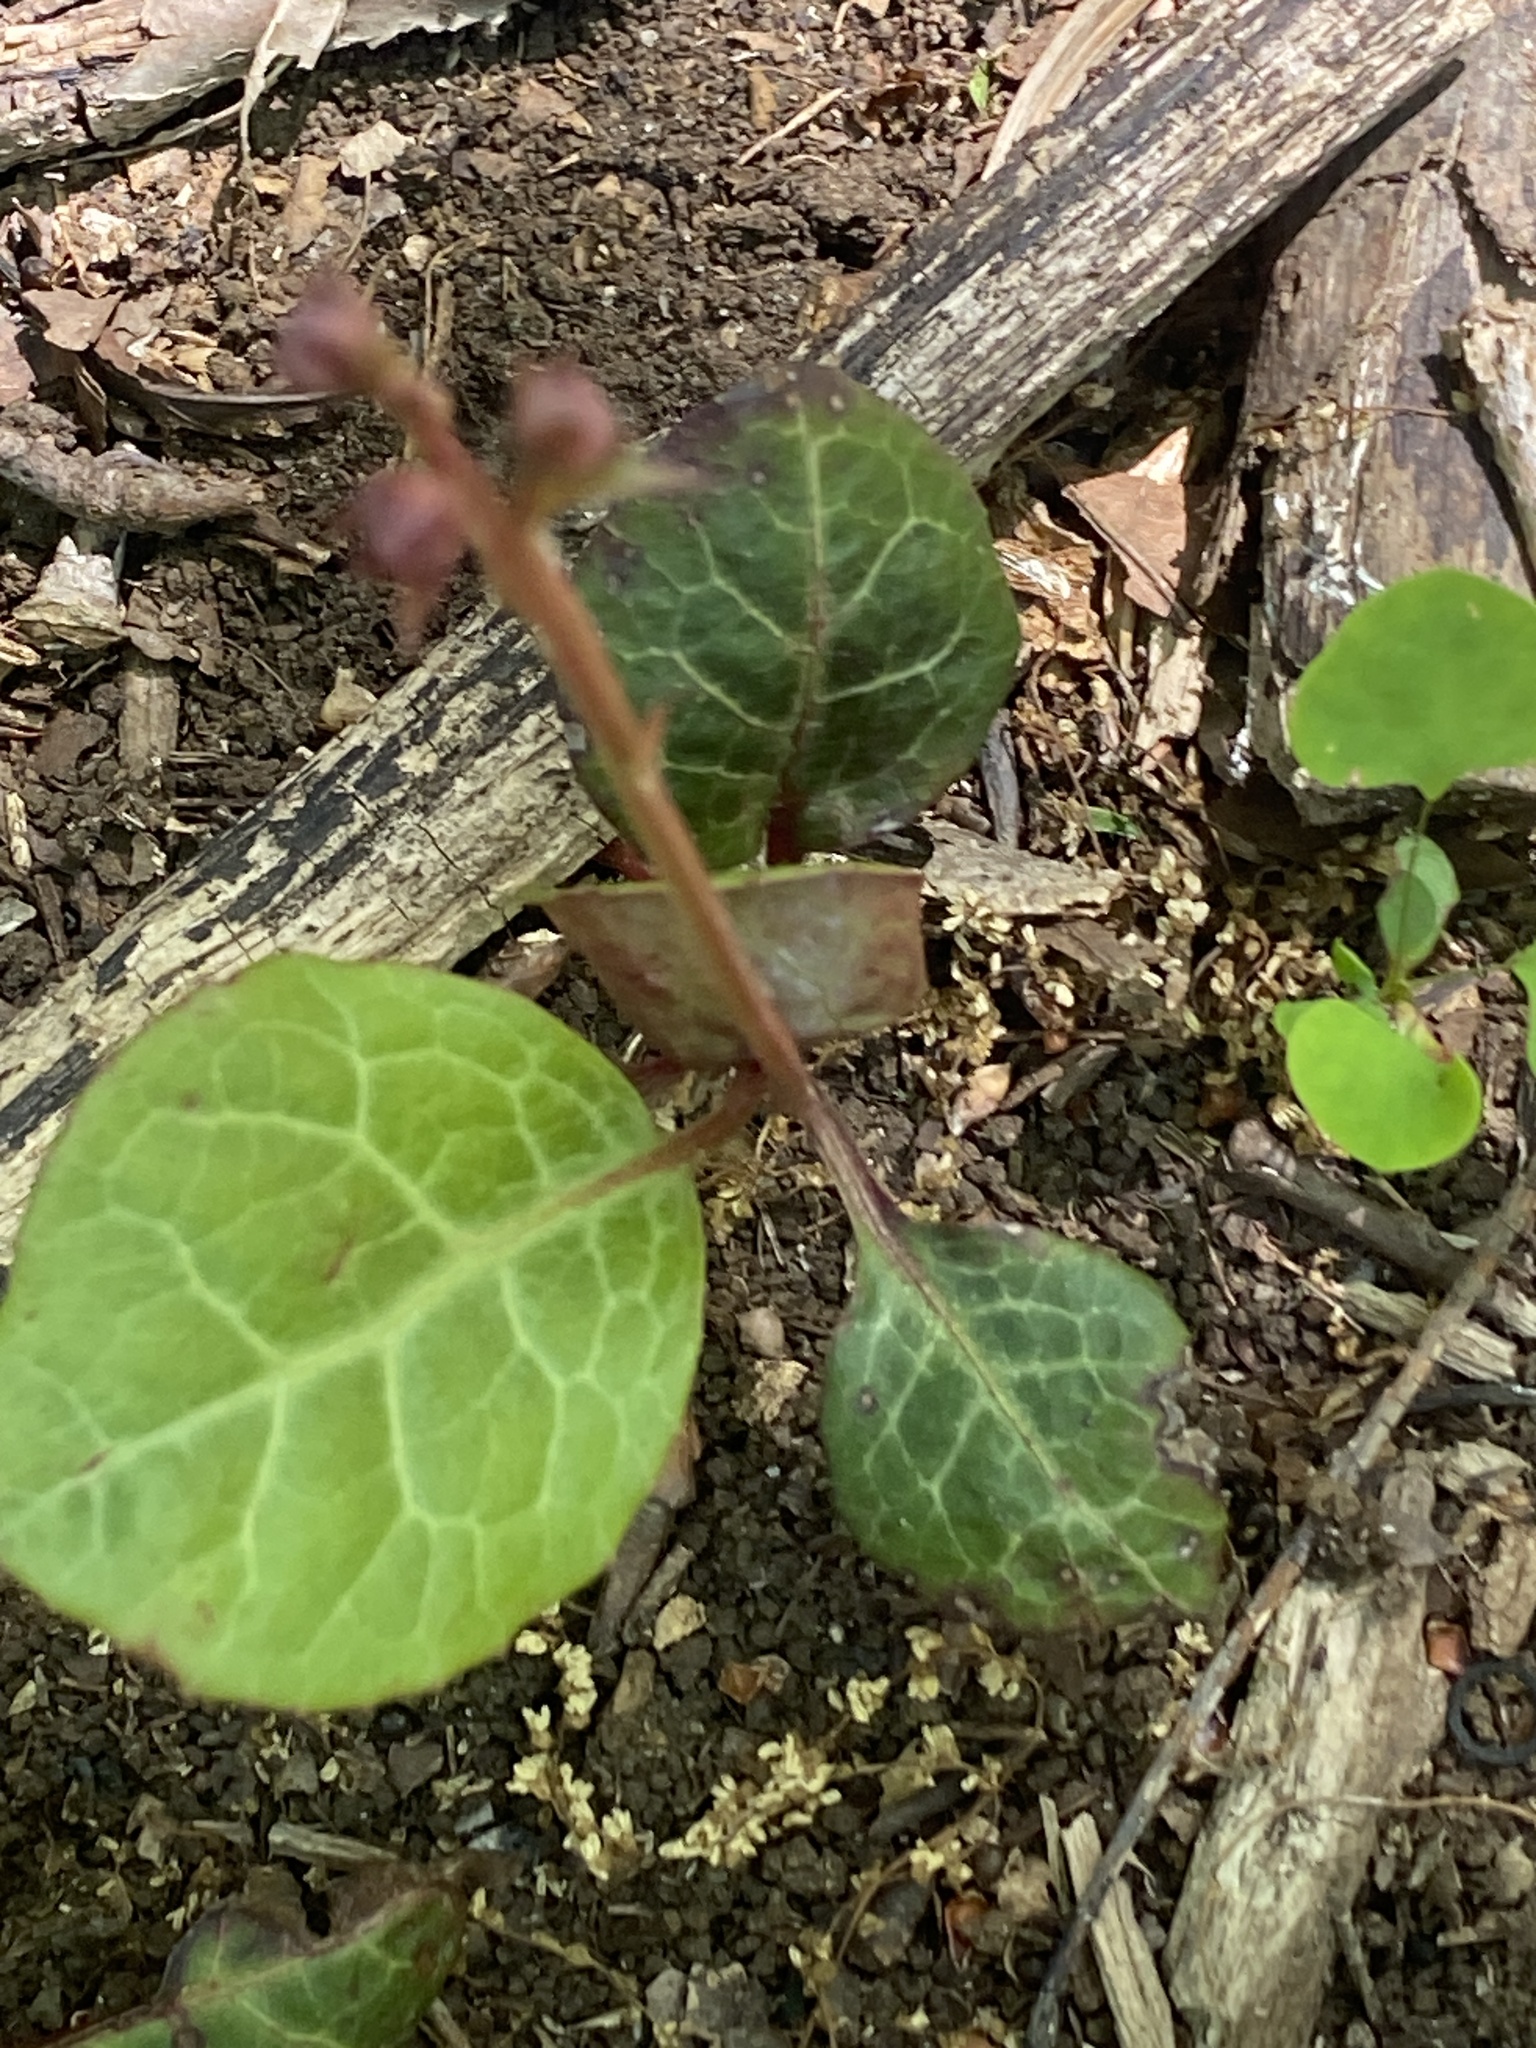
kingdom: Plantae
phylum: Tracheophyta
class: Magnoliopsida
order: Ericales
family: Ericaceae
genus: Pyrola
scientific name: Pyrola americana
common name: American wintergreen
